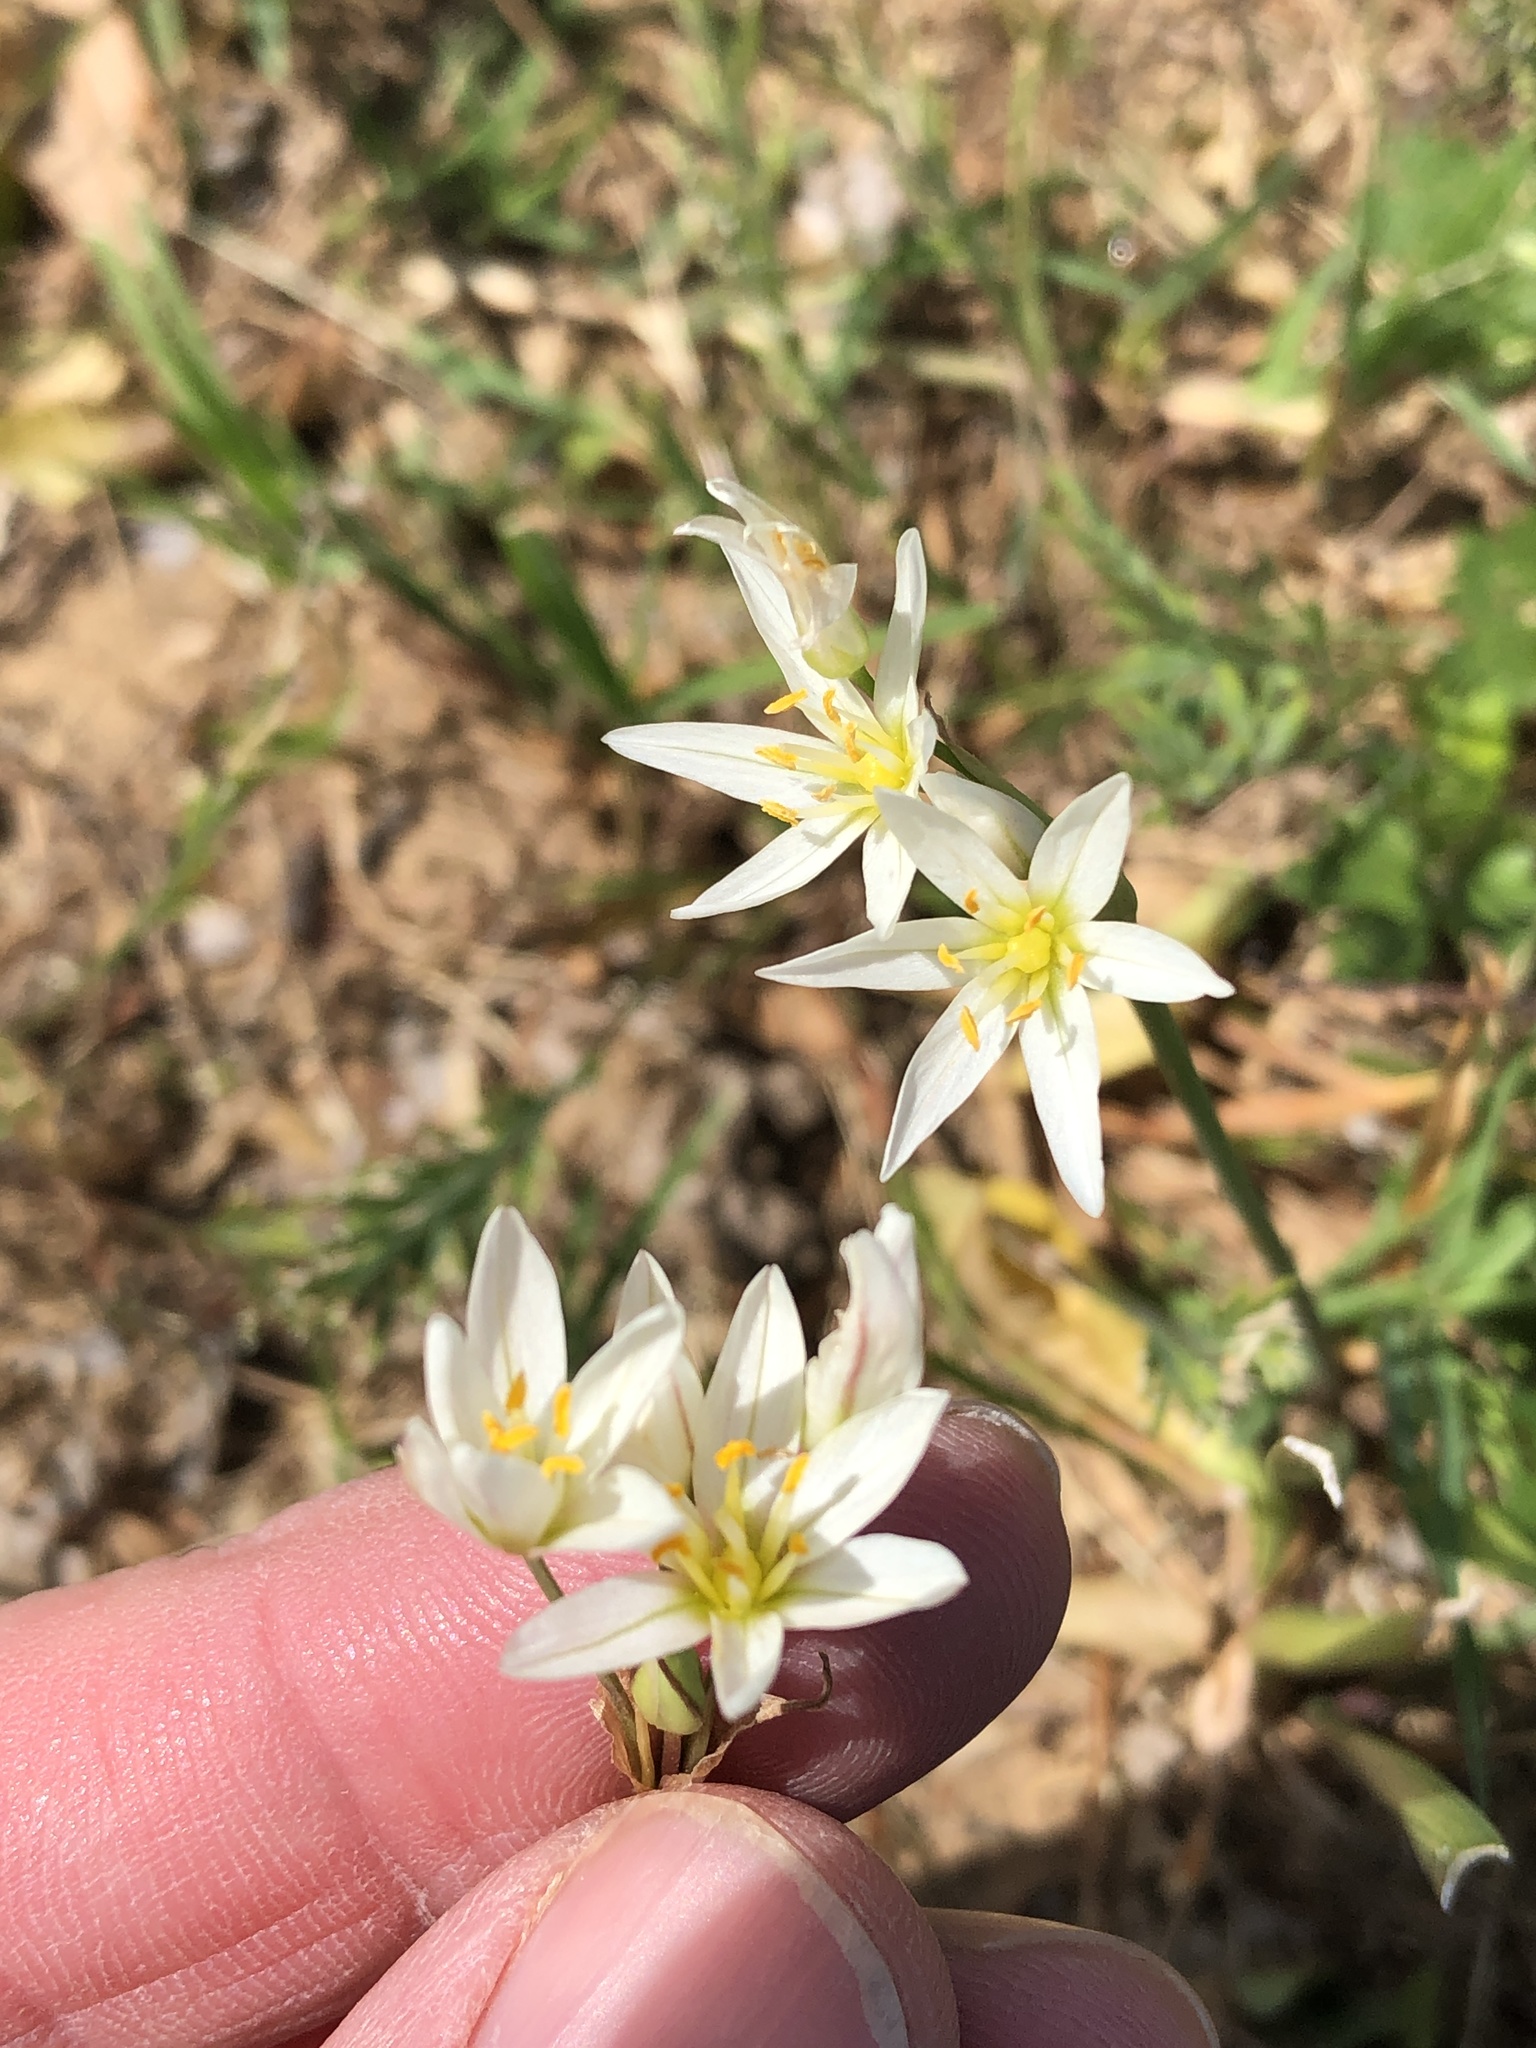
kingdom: Plantae
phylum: Tracheophyta
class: Liliopsida
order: Asparagales
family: Amaryllidaceae
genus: Nothoscordum
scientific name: Nothoscordum bivalve
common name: Crow-poison
